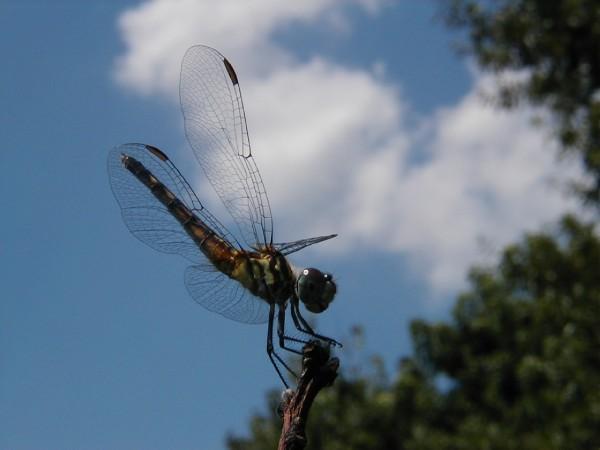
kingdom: Animalia
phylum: Arthropoda
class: Insecta
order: Odonata
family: Libellulidae
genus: Pachydiplax
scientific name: Pachydiplax longipennis
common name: Blue dasher
